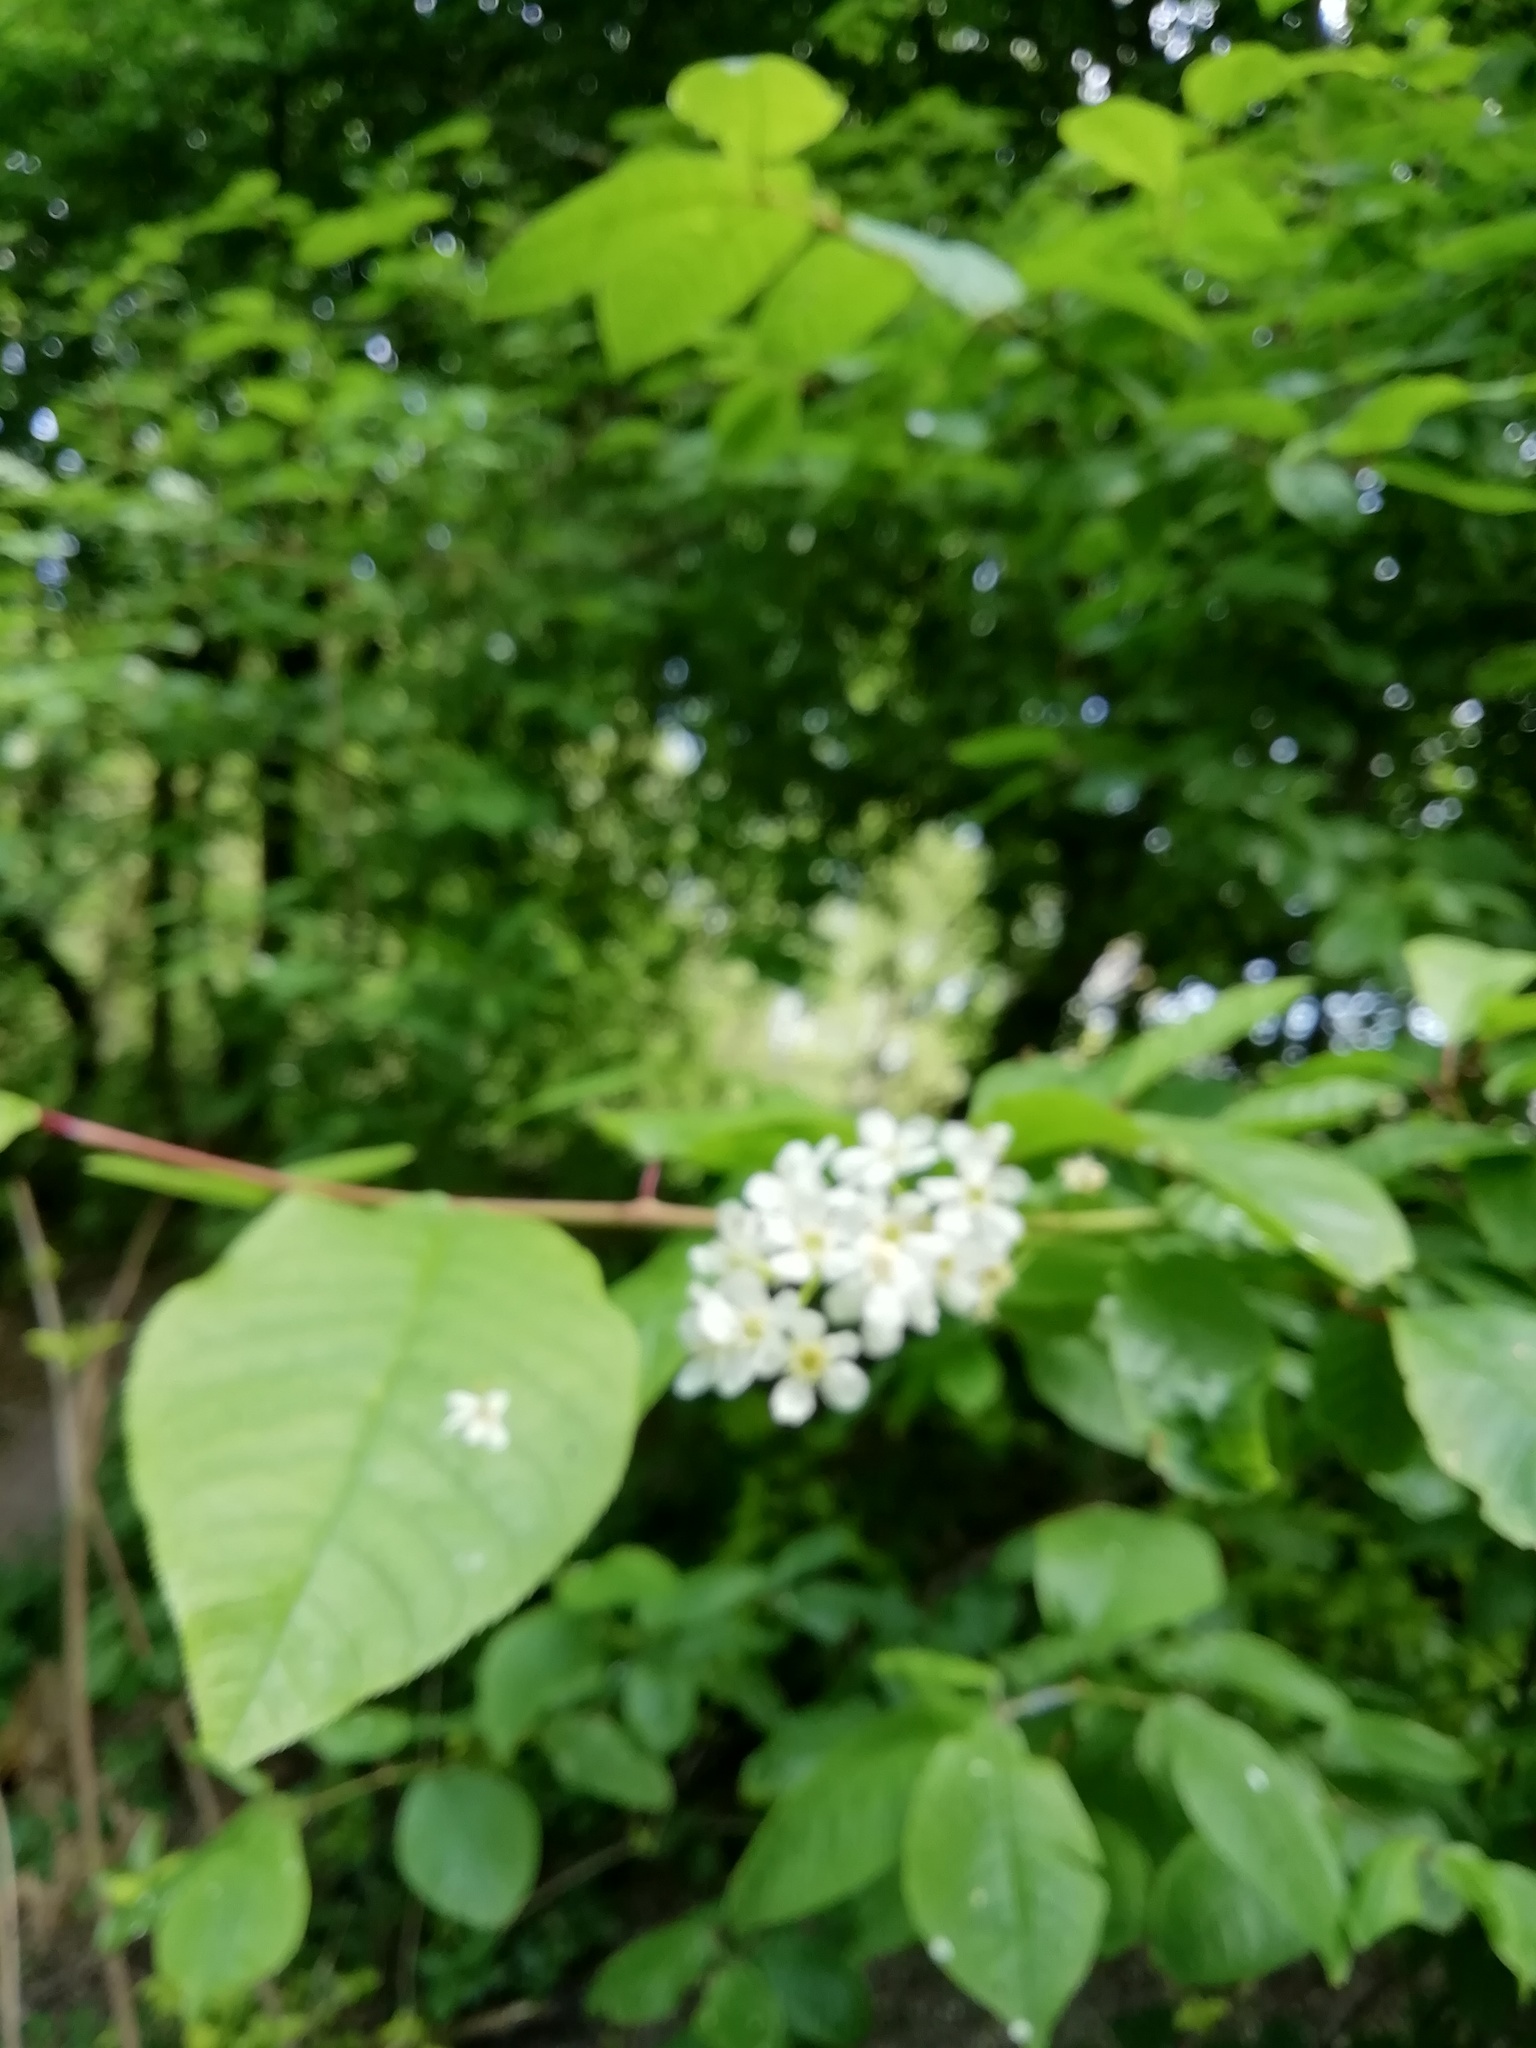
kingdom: Plantae
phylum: Tracheophyta
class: Magnoliopsida
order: Rosales
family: Rosaceae
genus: Prunus
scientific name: Prunus padus
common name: Bird cherry
